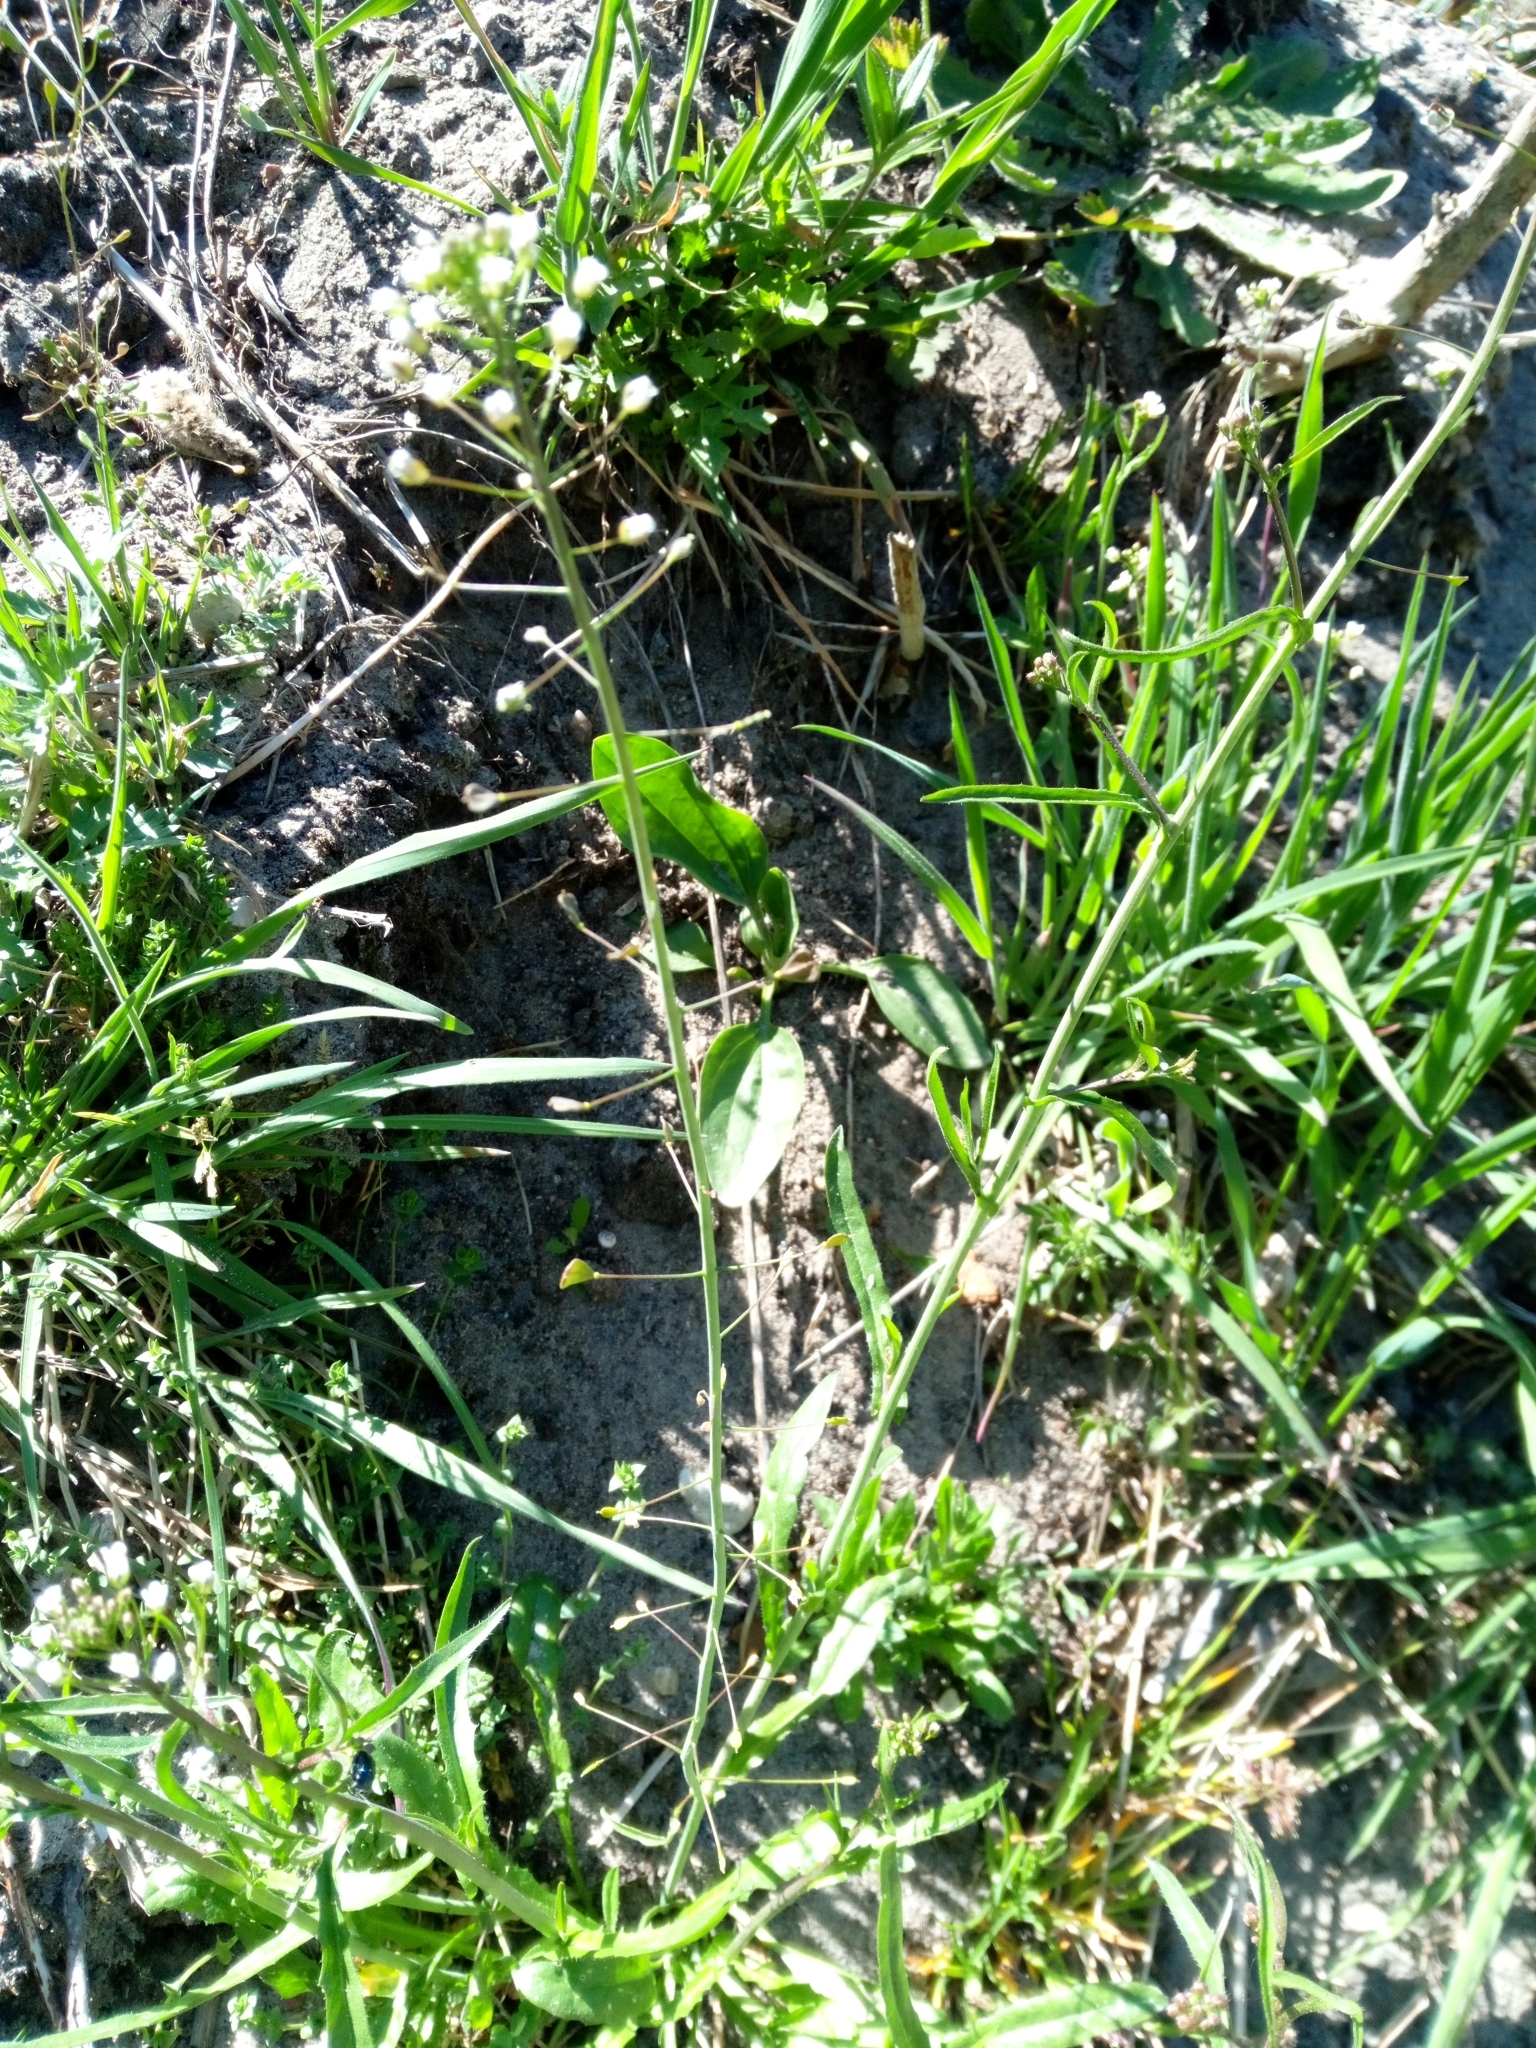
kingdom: Plantae
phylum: Tracheophyta
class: Magnoliopsida
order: Brassicales
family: Brassicaceae
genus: Capsella
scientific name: Capsella bursa-pastoris
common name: Shepherd's purse
